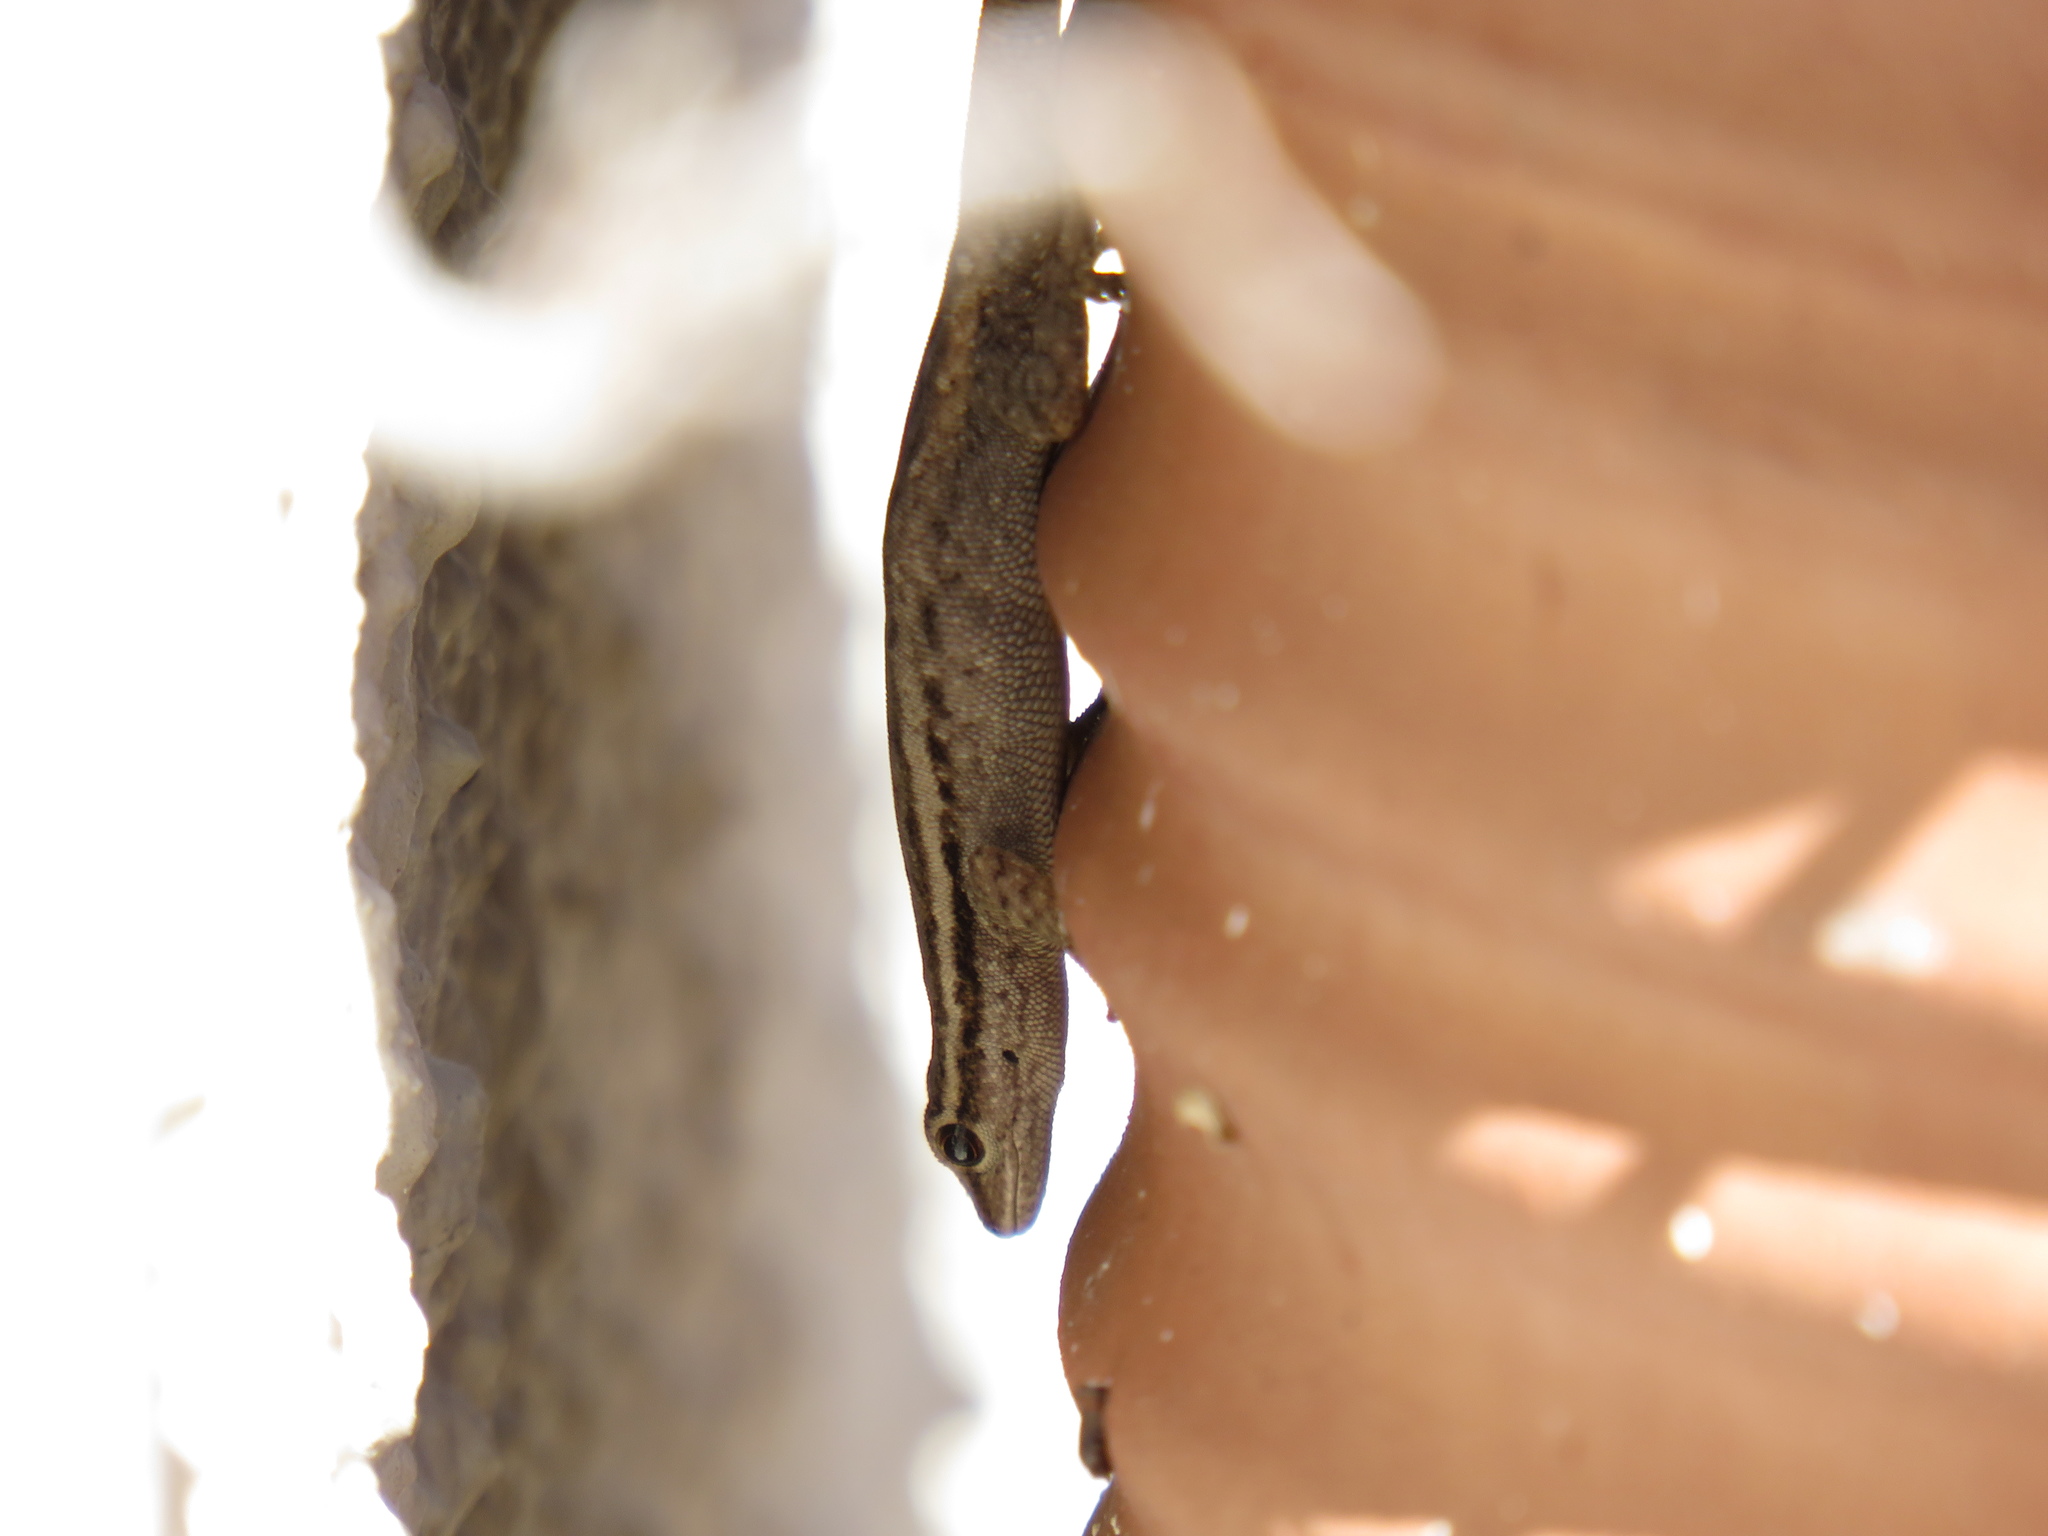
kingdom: Animalia
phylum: Chordata
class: Squamata
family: Gekkonidae
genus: Lygodactylus
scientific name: Lygodactylus capensis
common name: Cape dwarf gecko
